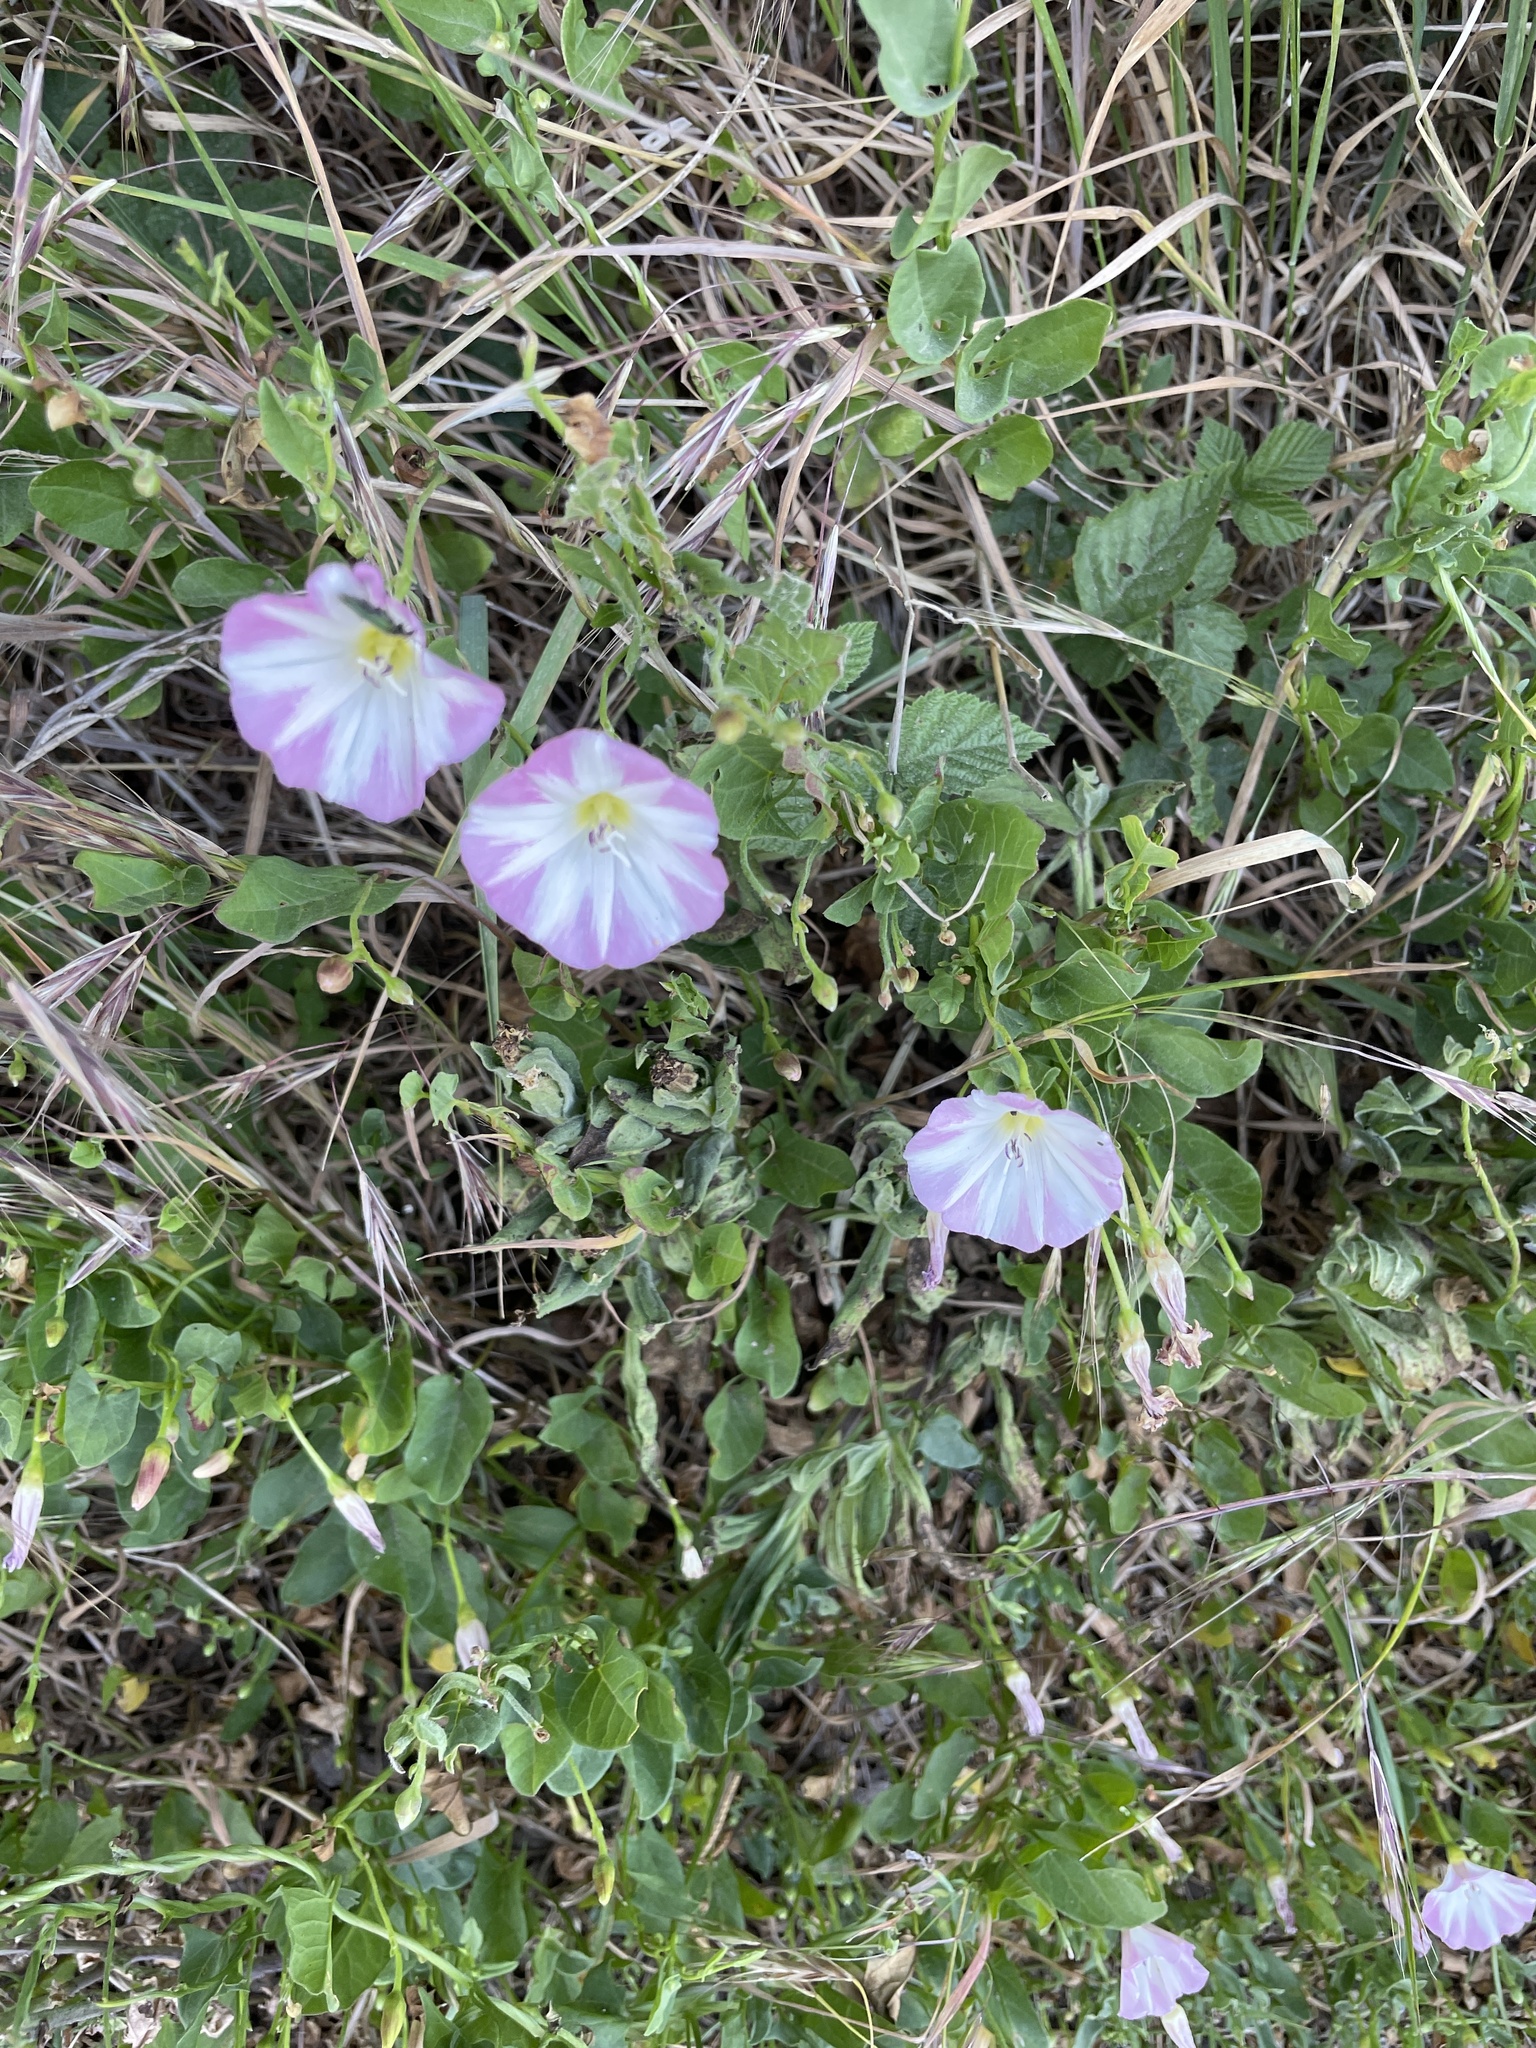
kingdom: Plantae
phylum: Tracheophyta
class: Magnoliopsida
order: Solanales
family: Convolvulaceae
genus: Convolvulus
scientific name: Convolvulus arvensis
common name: Field bindweed
